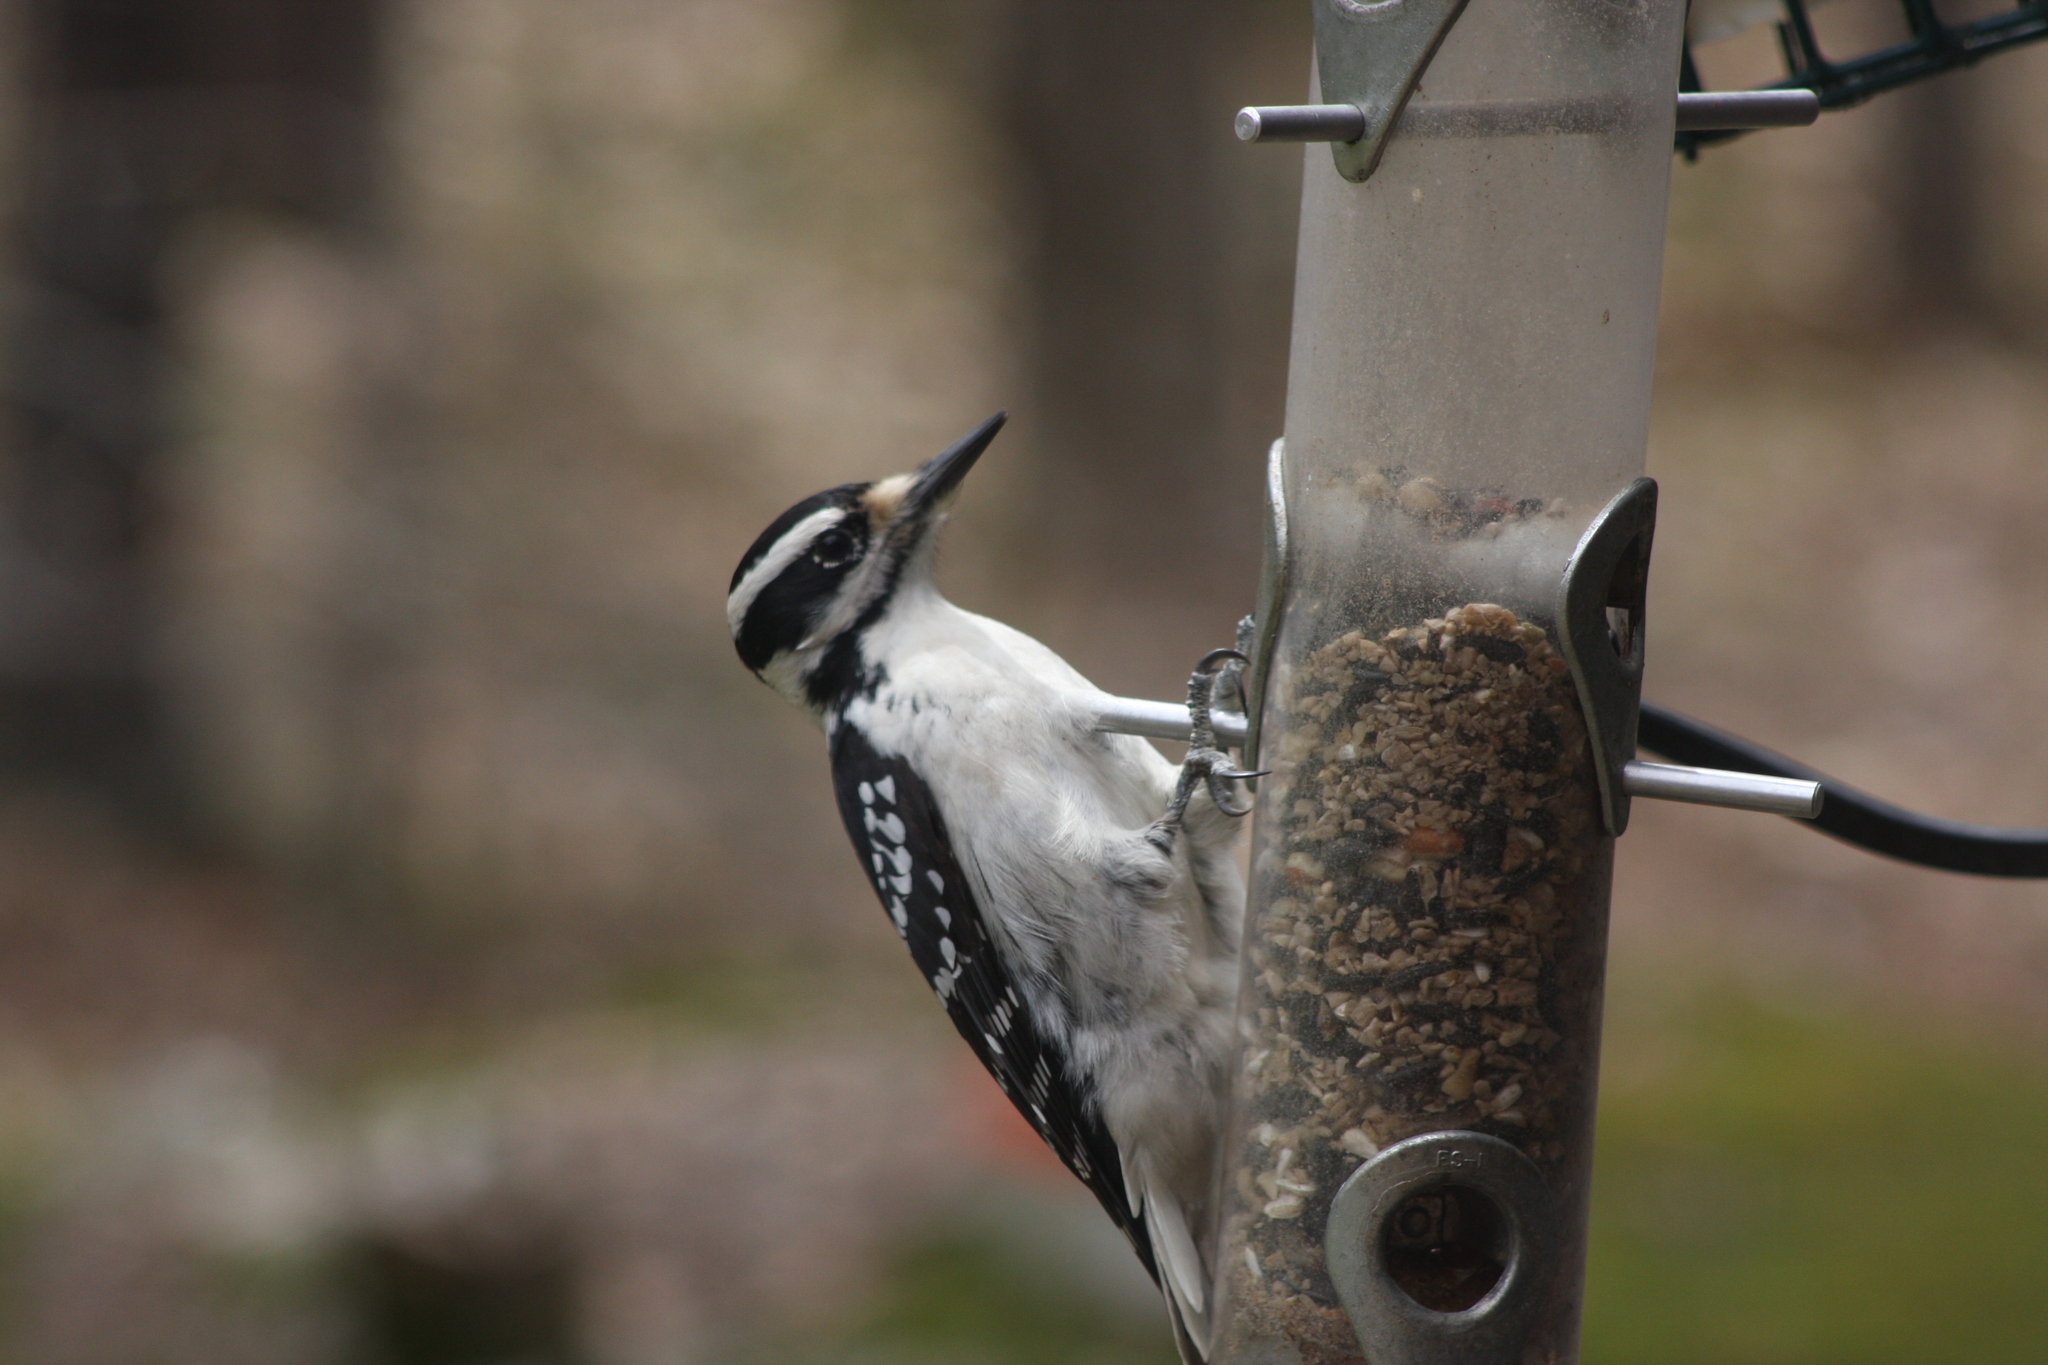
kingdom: Animalia
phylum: Chordata
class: Aves
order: Piciformes
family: Picidae
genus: Leuconotopicus
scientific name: Leuconotopicus villosus
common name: Hairy woodpecker
